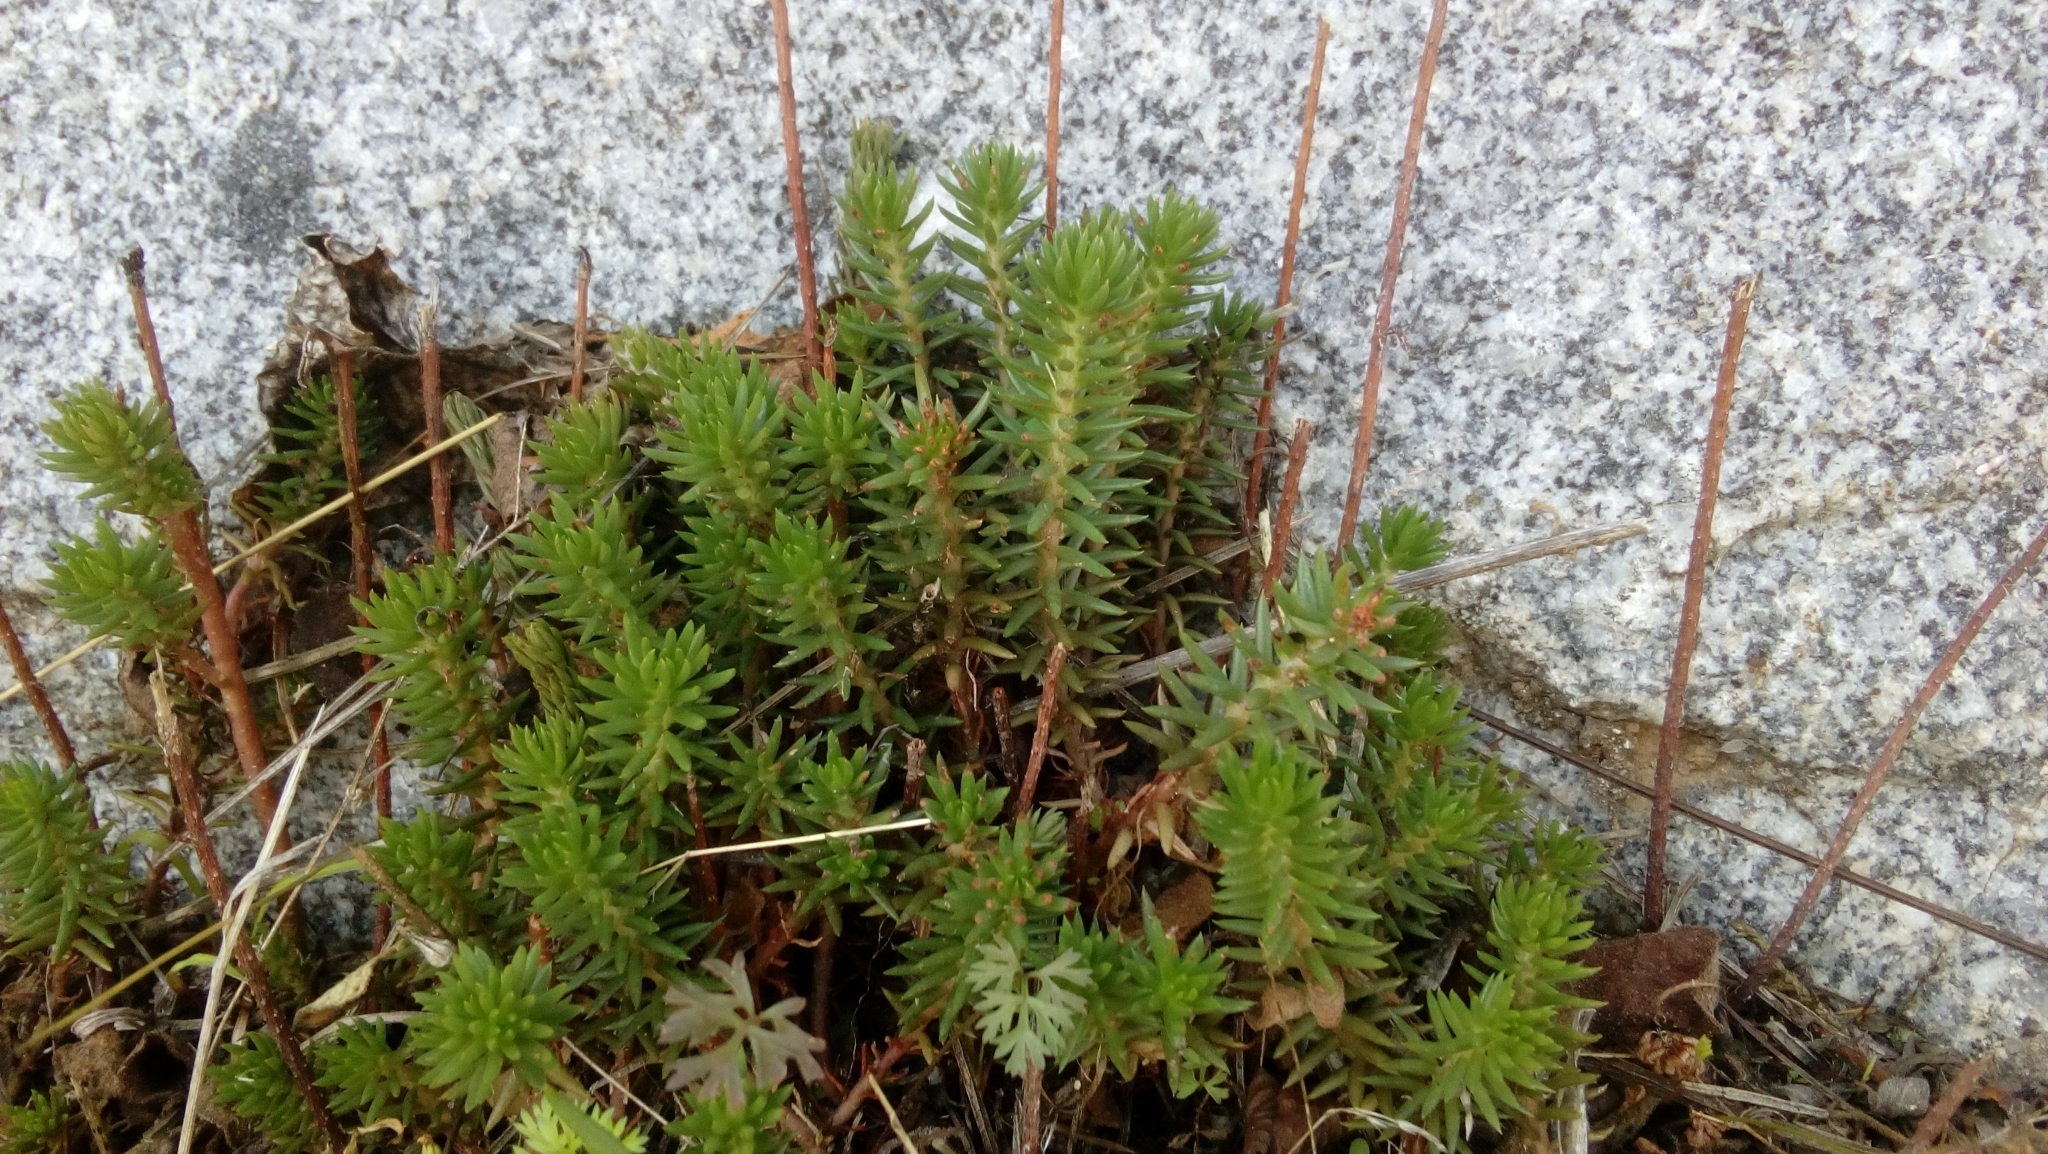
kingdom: Plantae
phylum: Tracheophyta
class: Magnoliopsida
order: Saxifragales
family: Crassulaceae
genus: Petrosedum
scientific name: Petrosedum rupestre
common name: Jenny's stonecrop
